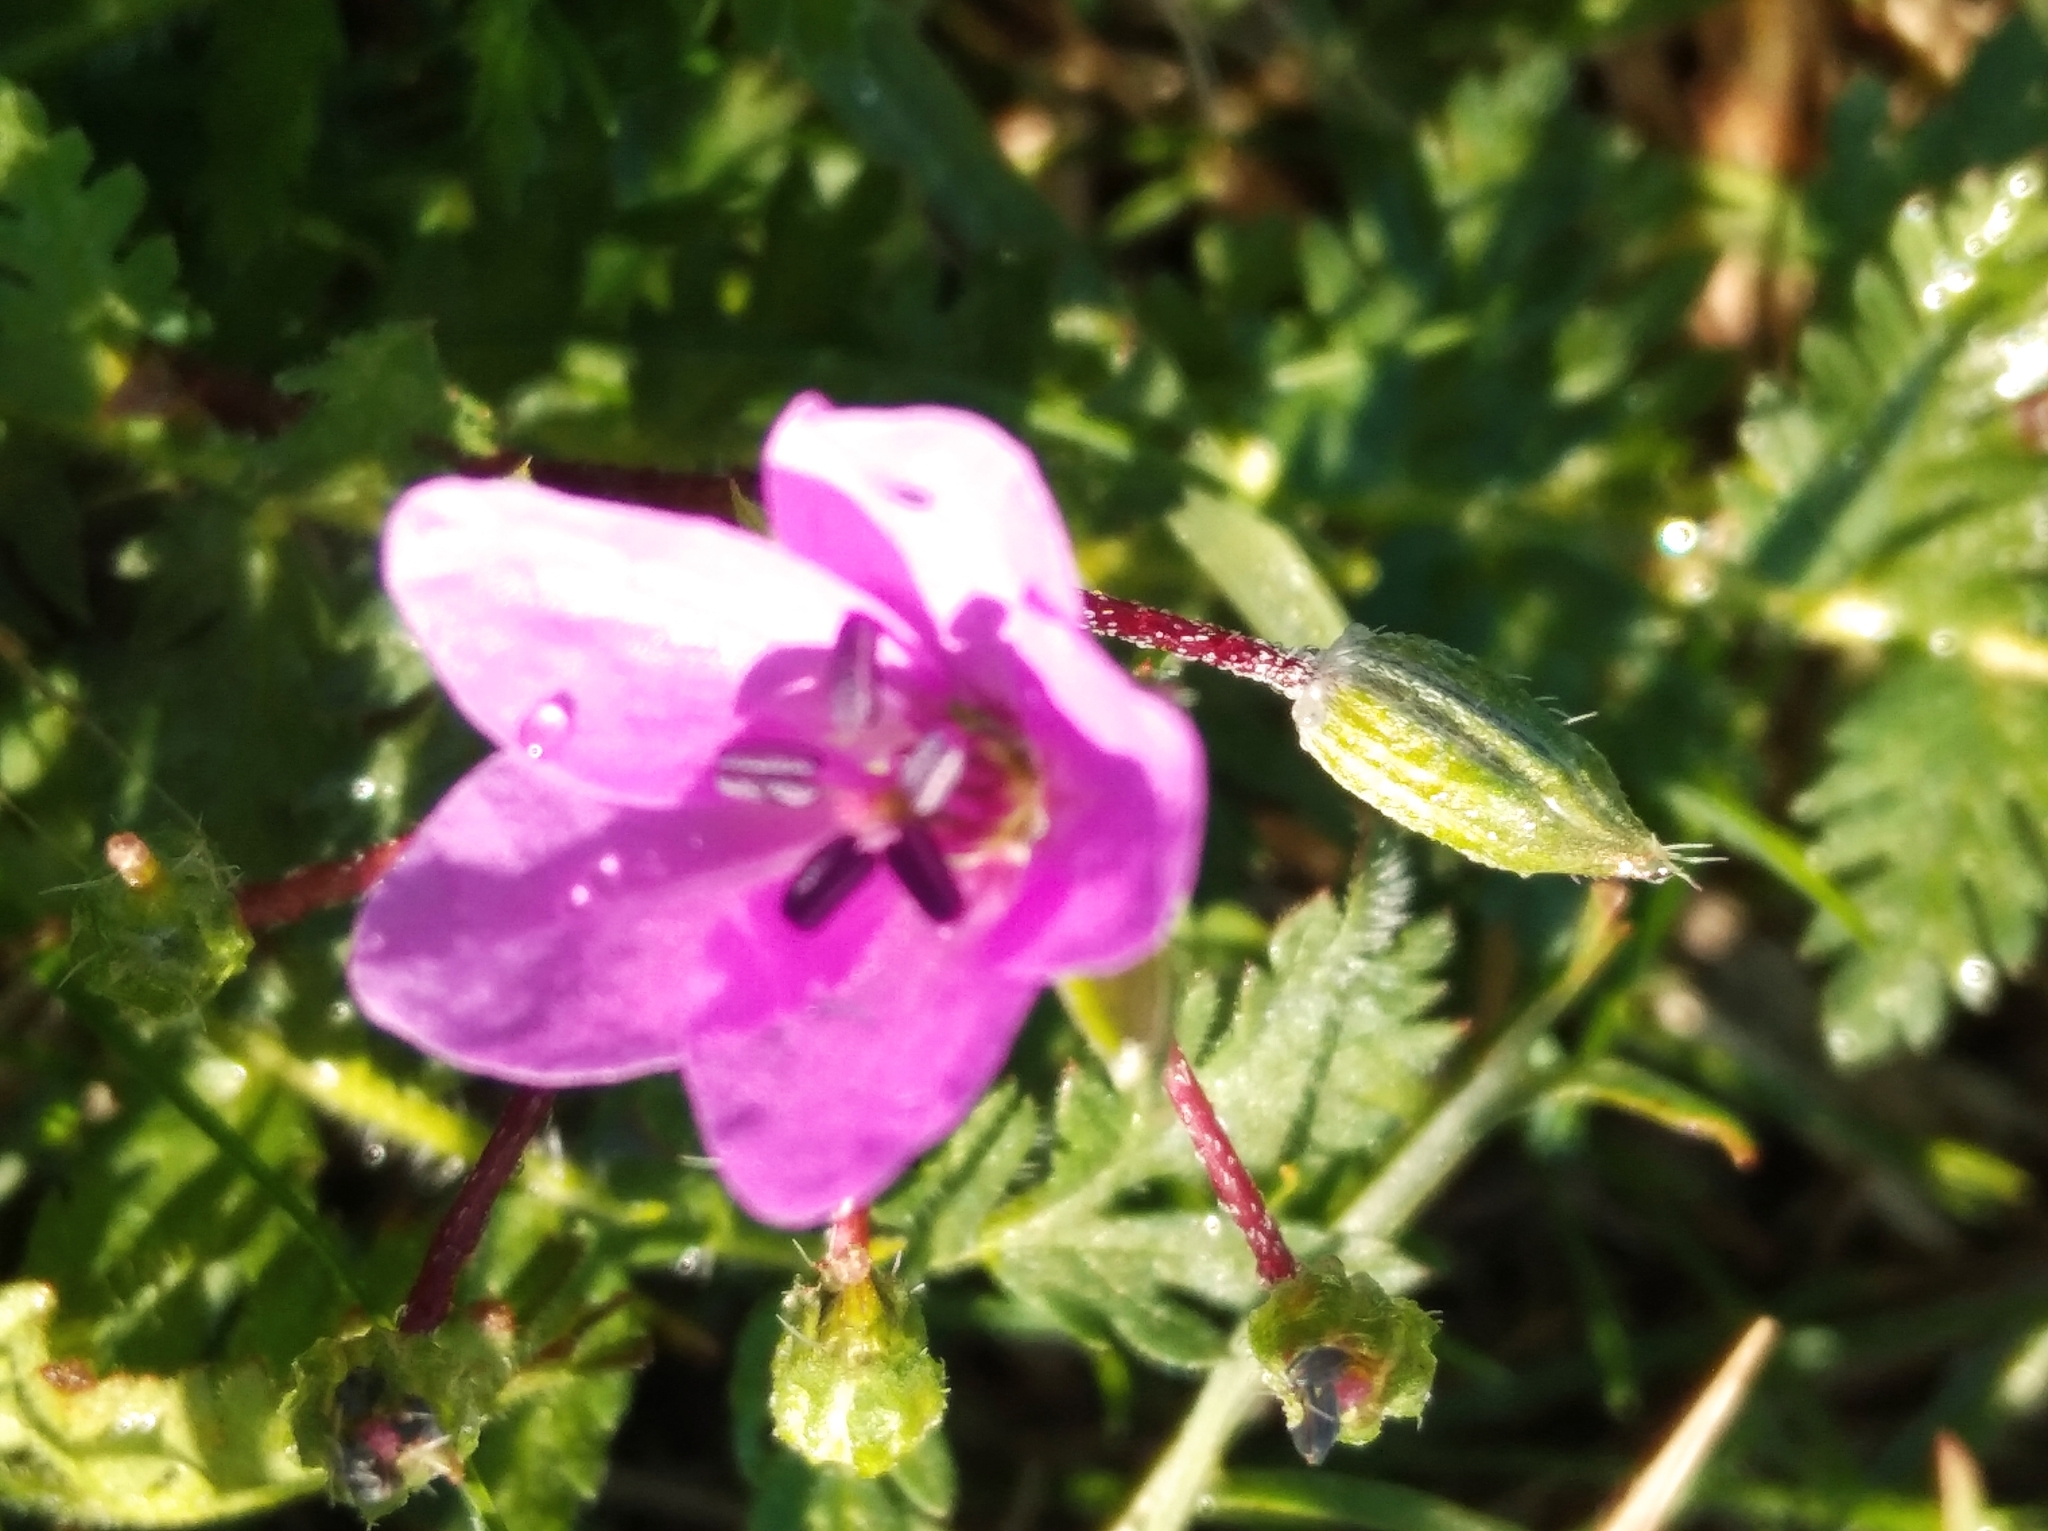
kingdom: Plantae
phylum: Tracheophyta
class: Magnoliopsida
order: Geraniales
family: Geraniaceae
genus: Erodium
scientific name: Erodium cicutarium
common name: Common stork's-bill
